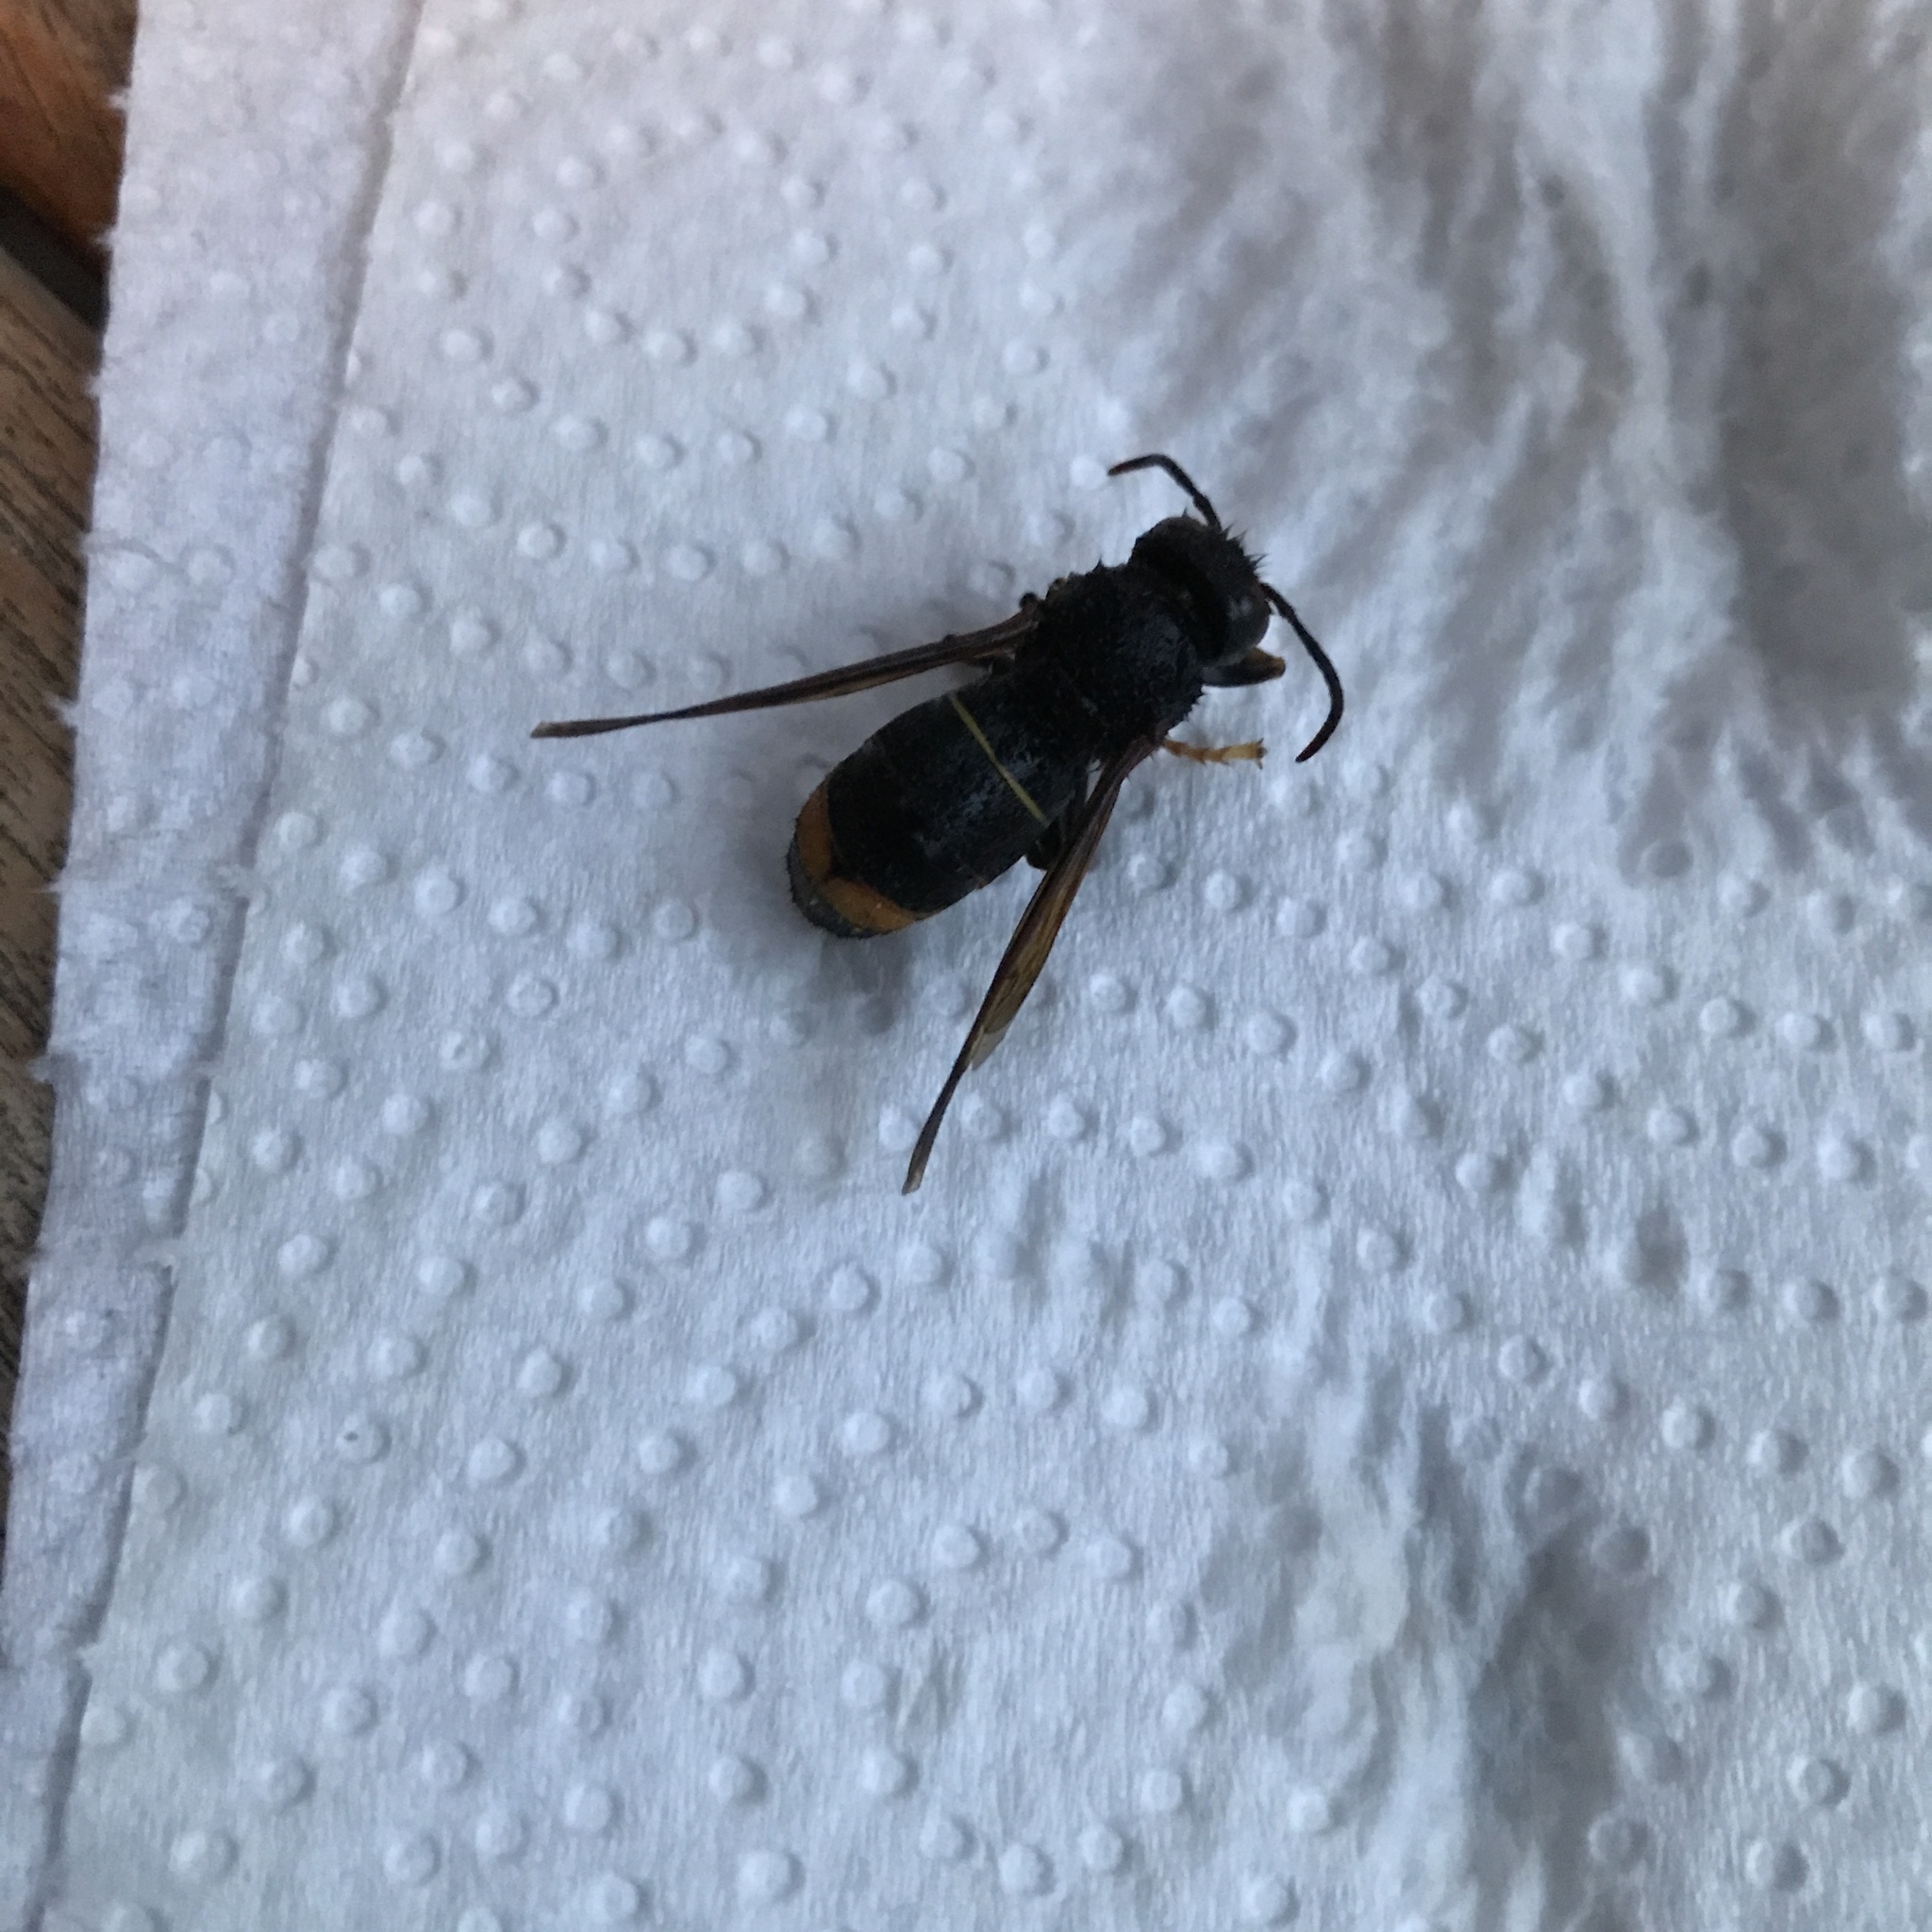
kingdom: Animalia
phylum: Arthropoda
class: Insecta
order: Hymenoptera
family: Vespidae
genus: Vespa
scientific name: Vespa velutina
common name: Asian hornet
